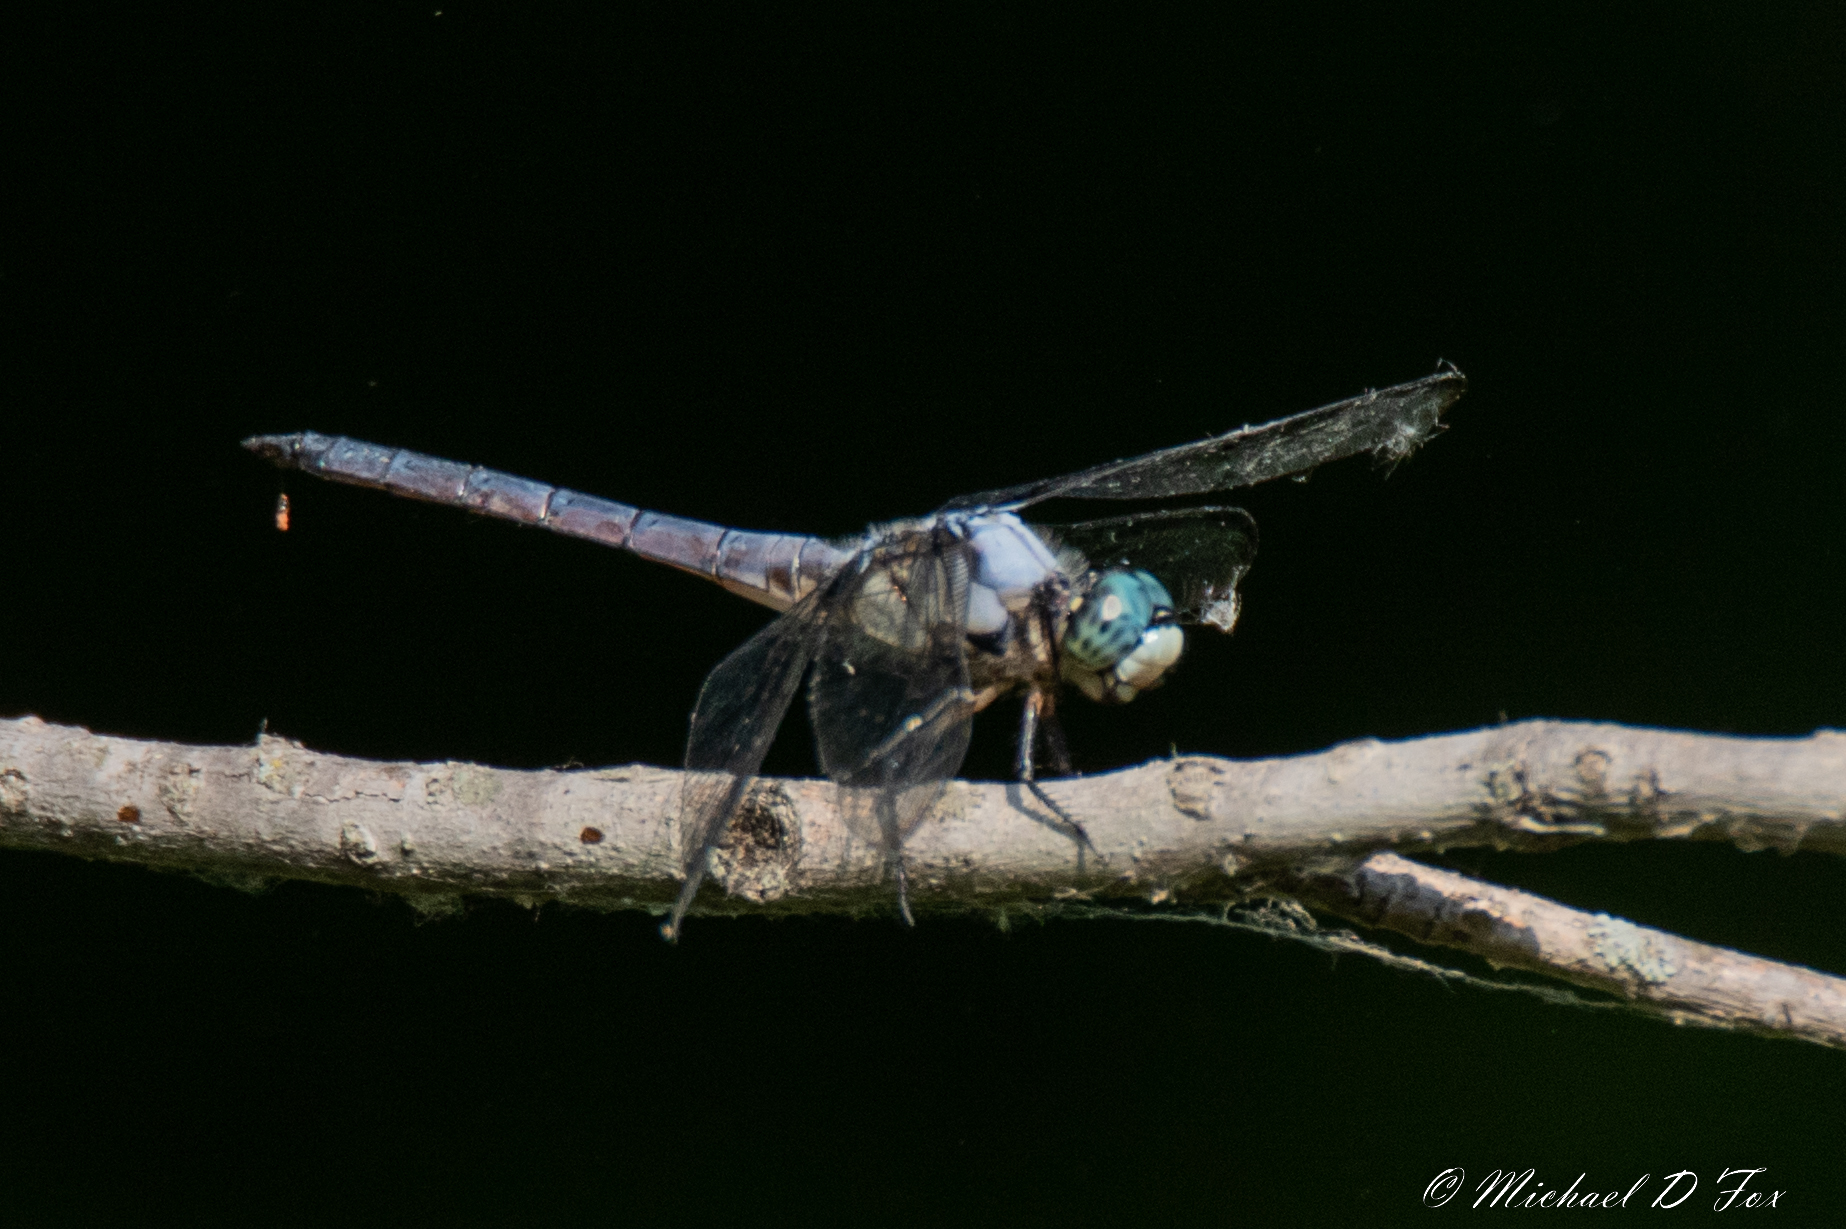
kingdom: Animalia
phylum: Arthropoda
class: Insecta
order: Odonata
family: Libellulidae
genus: Libellula
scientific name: Libellula vibrans
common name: Great blue skimmer
